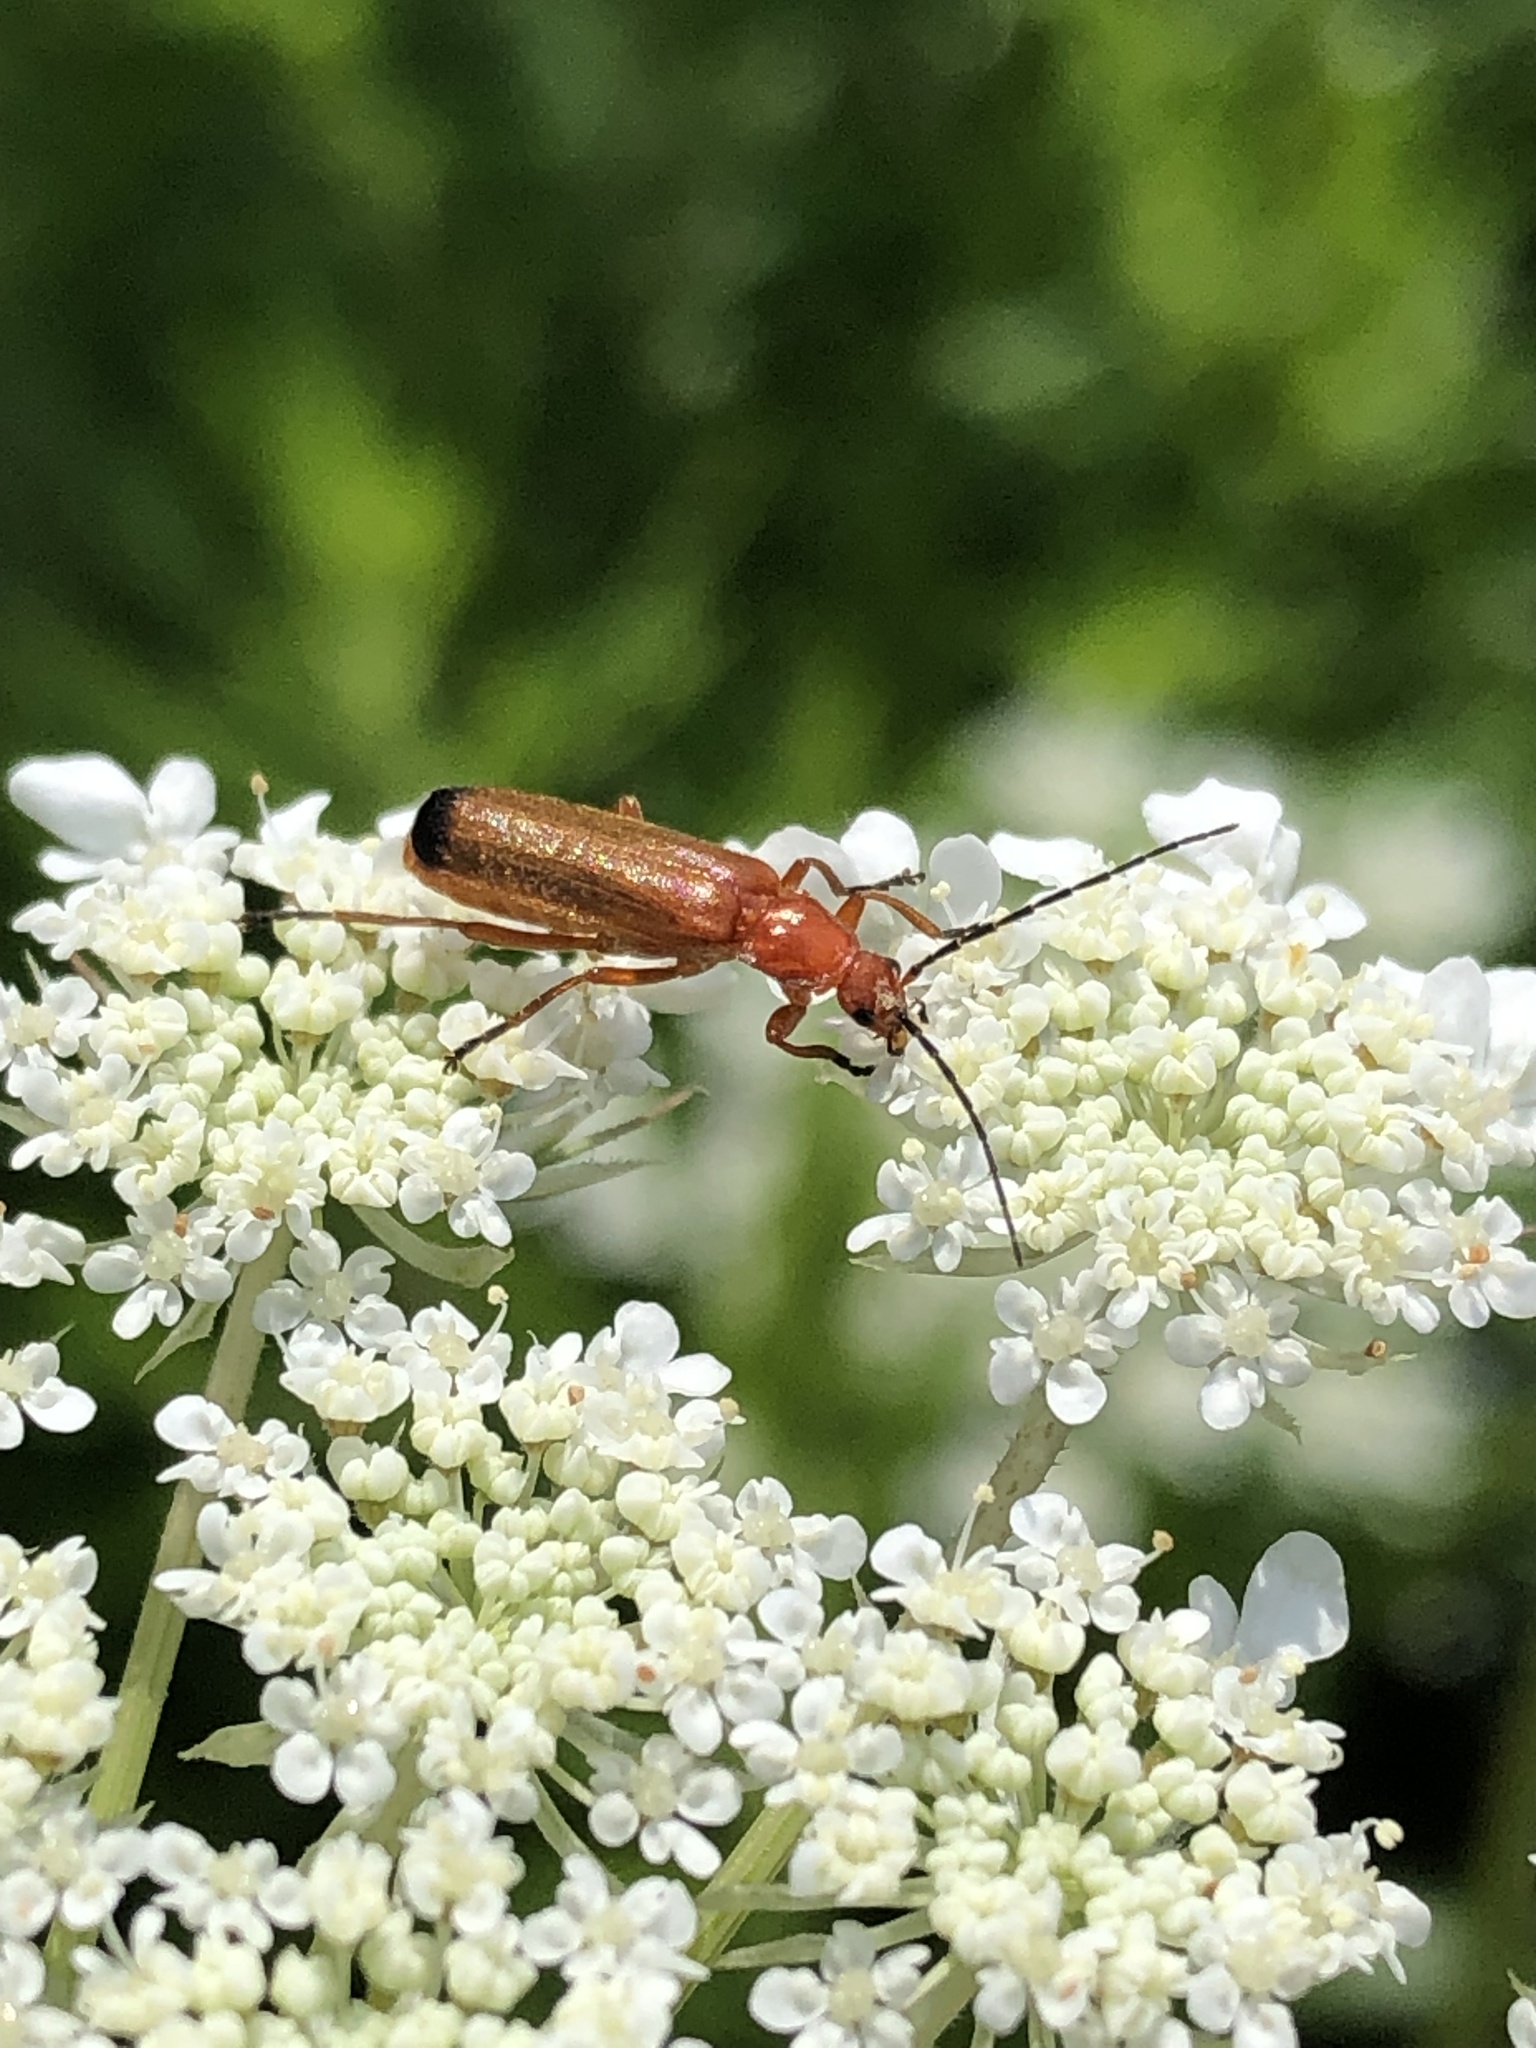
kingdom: Animalia
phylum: Arthropoda
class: Insecta
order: Coleoptera
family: Cantharidae
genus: Rhagonycha
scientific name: Rhagonycha fulva
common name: Common red soldier beetle
